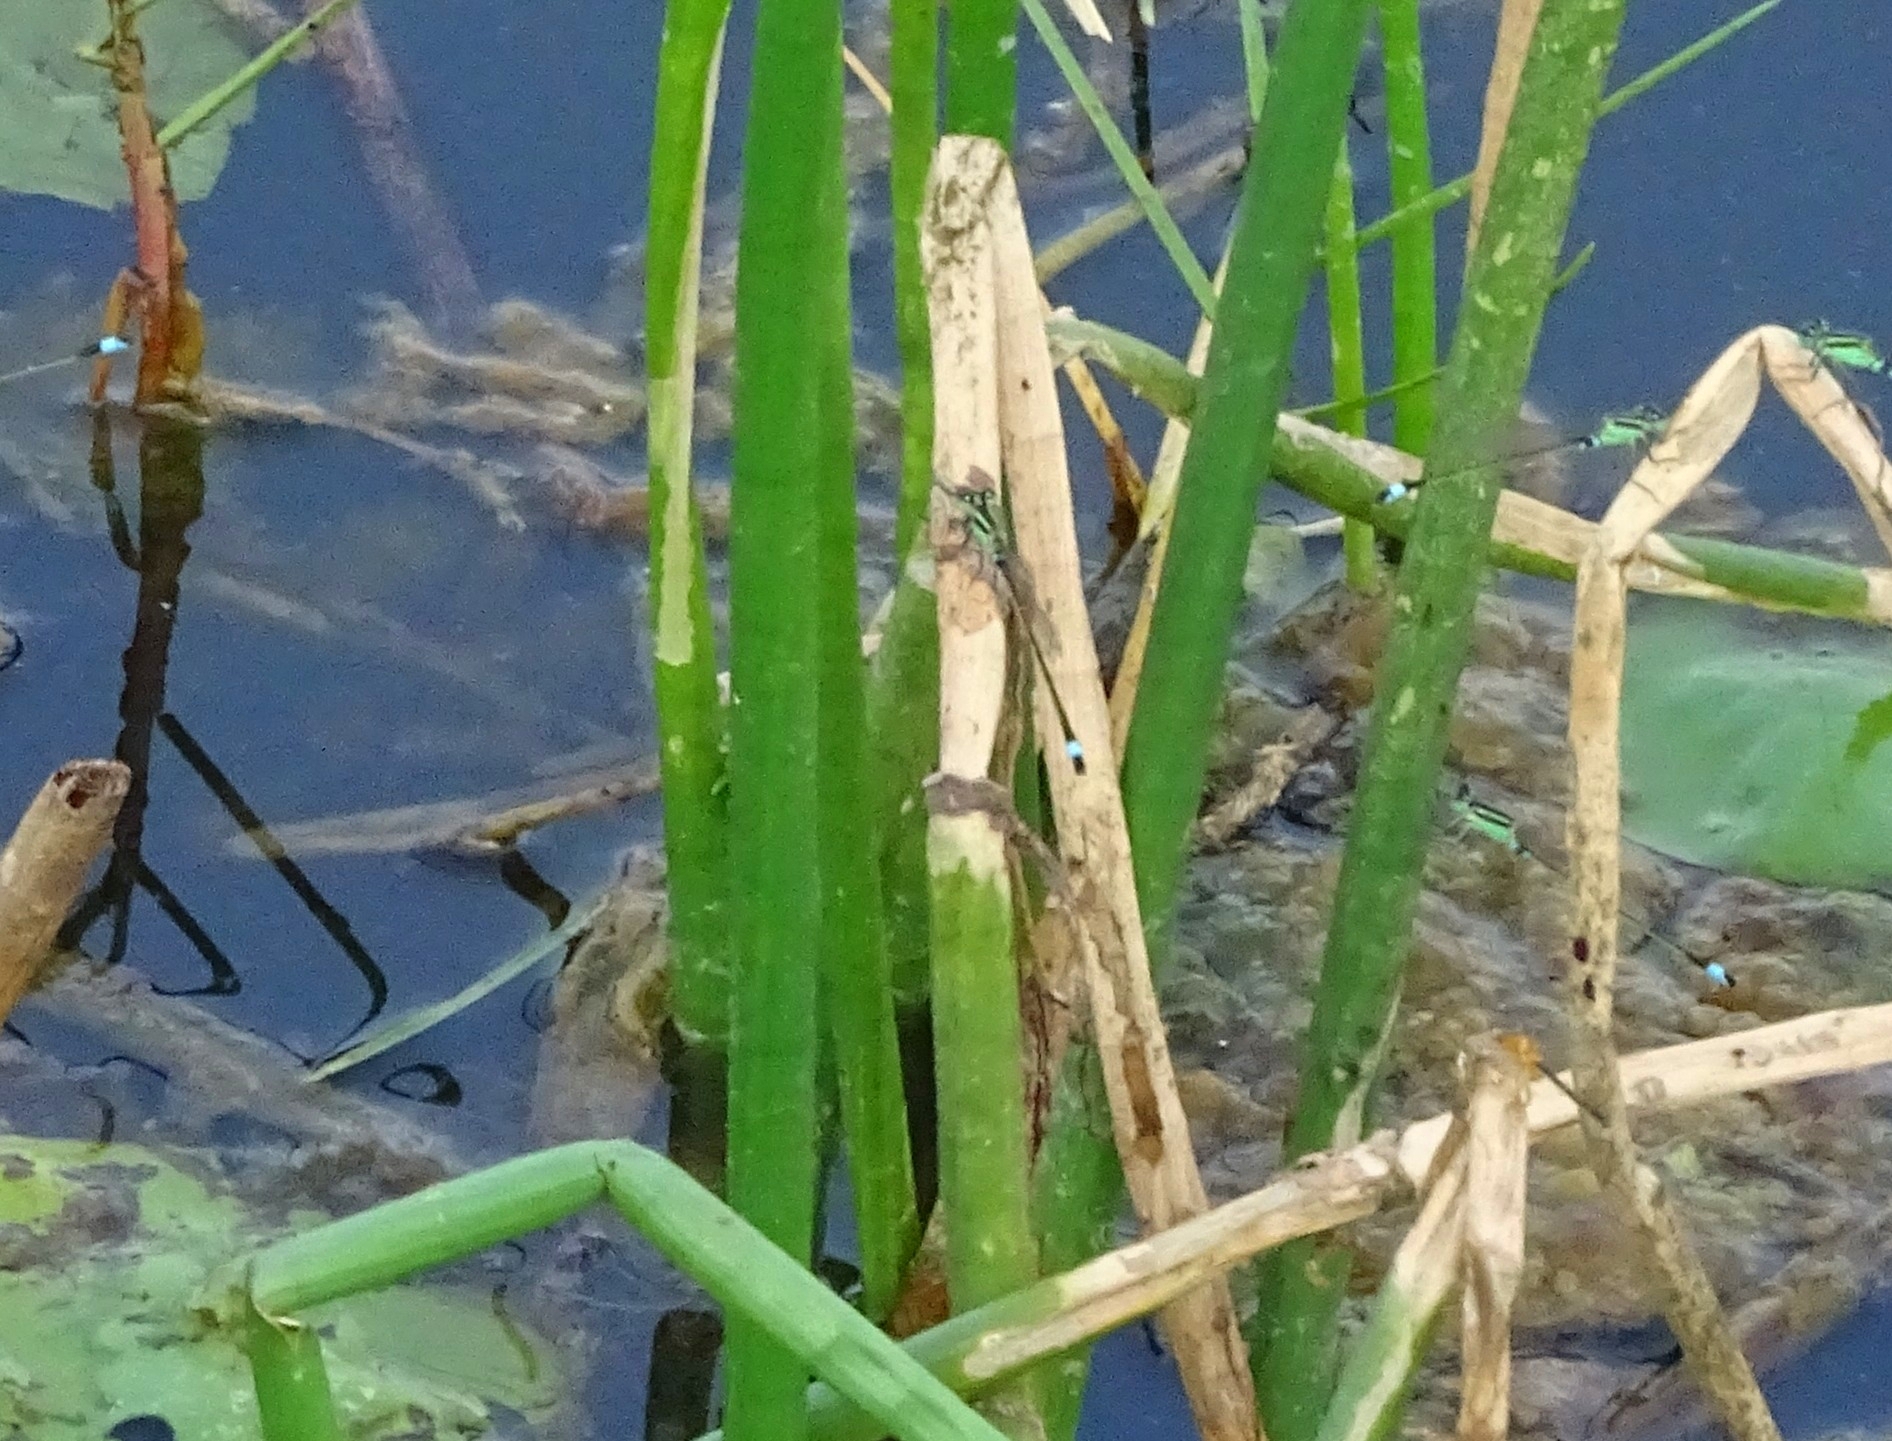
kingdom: Animalia
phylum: Arthropoda
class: Insecta
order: Odonata
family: Coenagrionidae
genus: Ischnura
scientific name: Ischnura senegalensis
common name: Tropical bluetail
